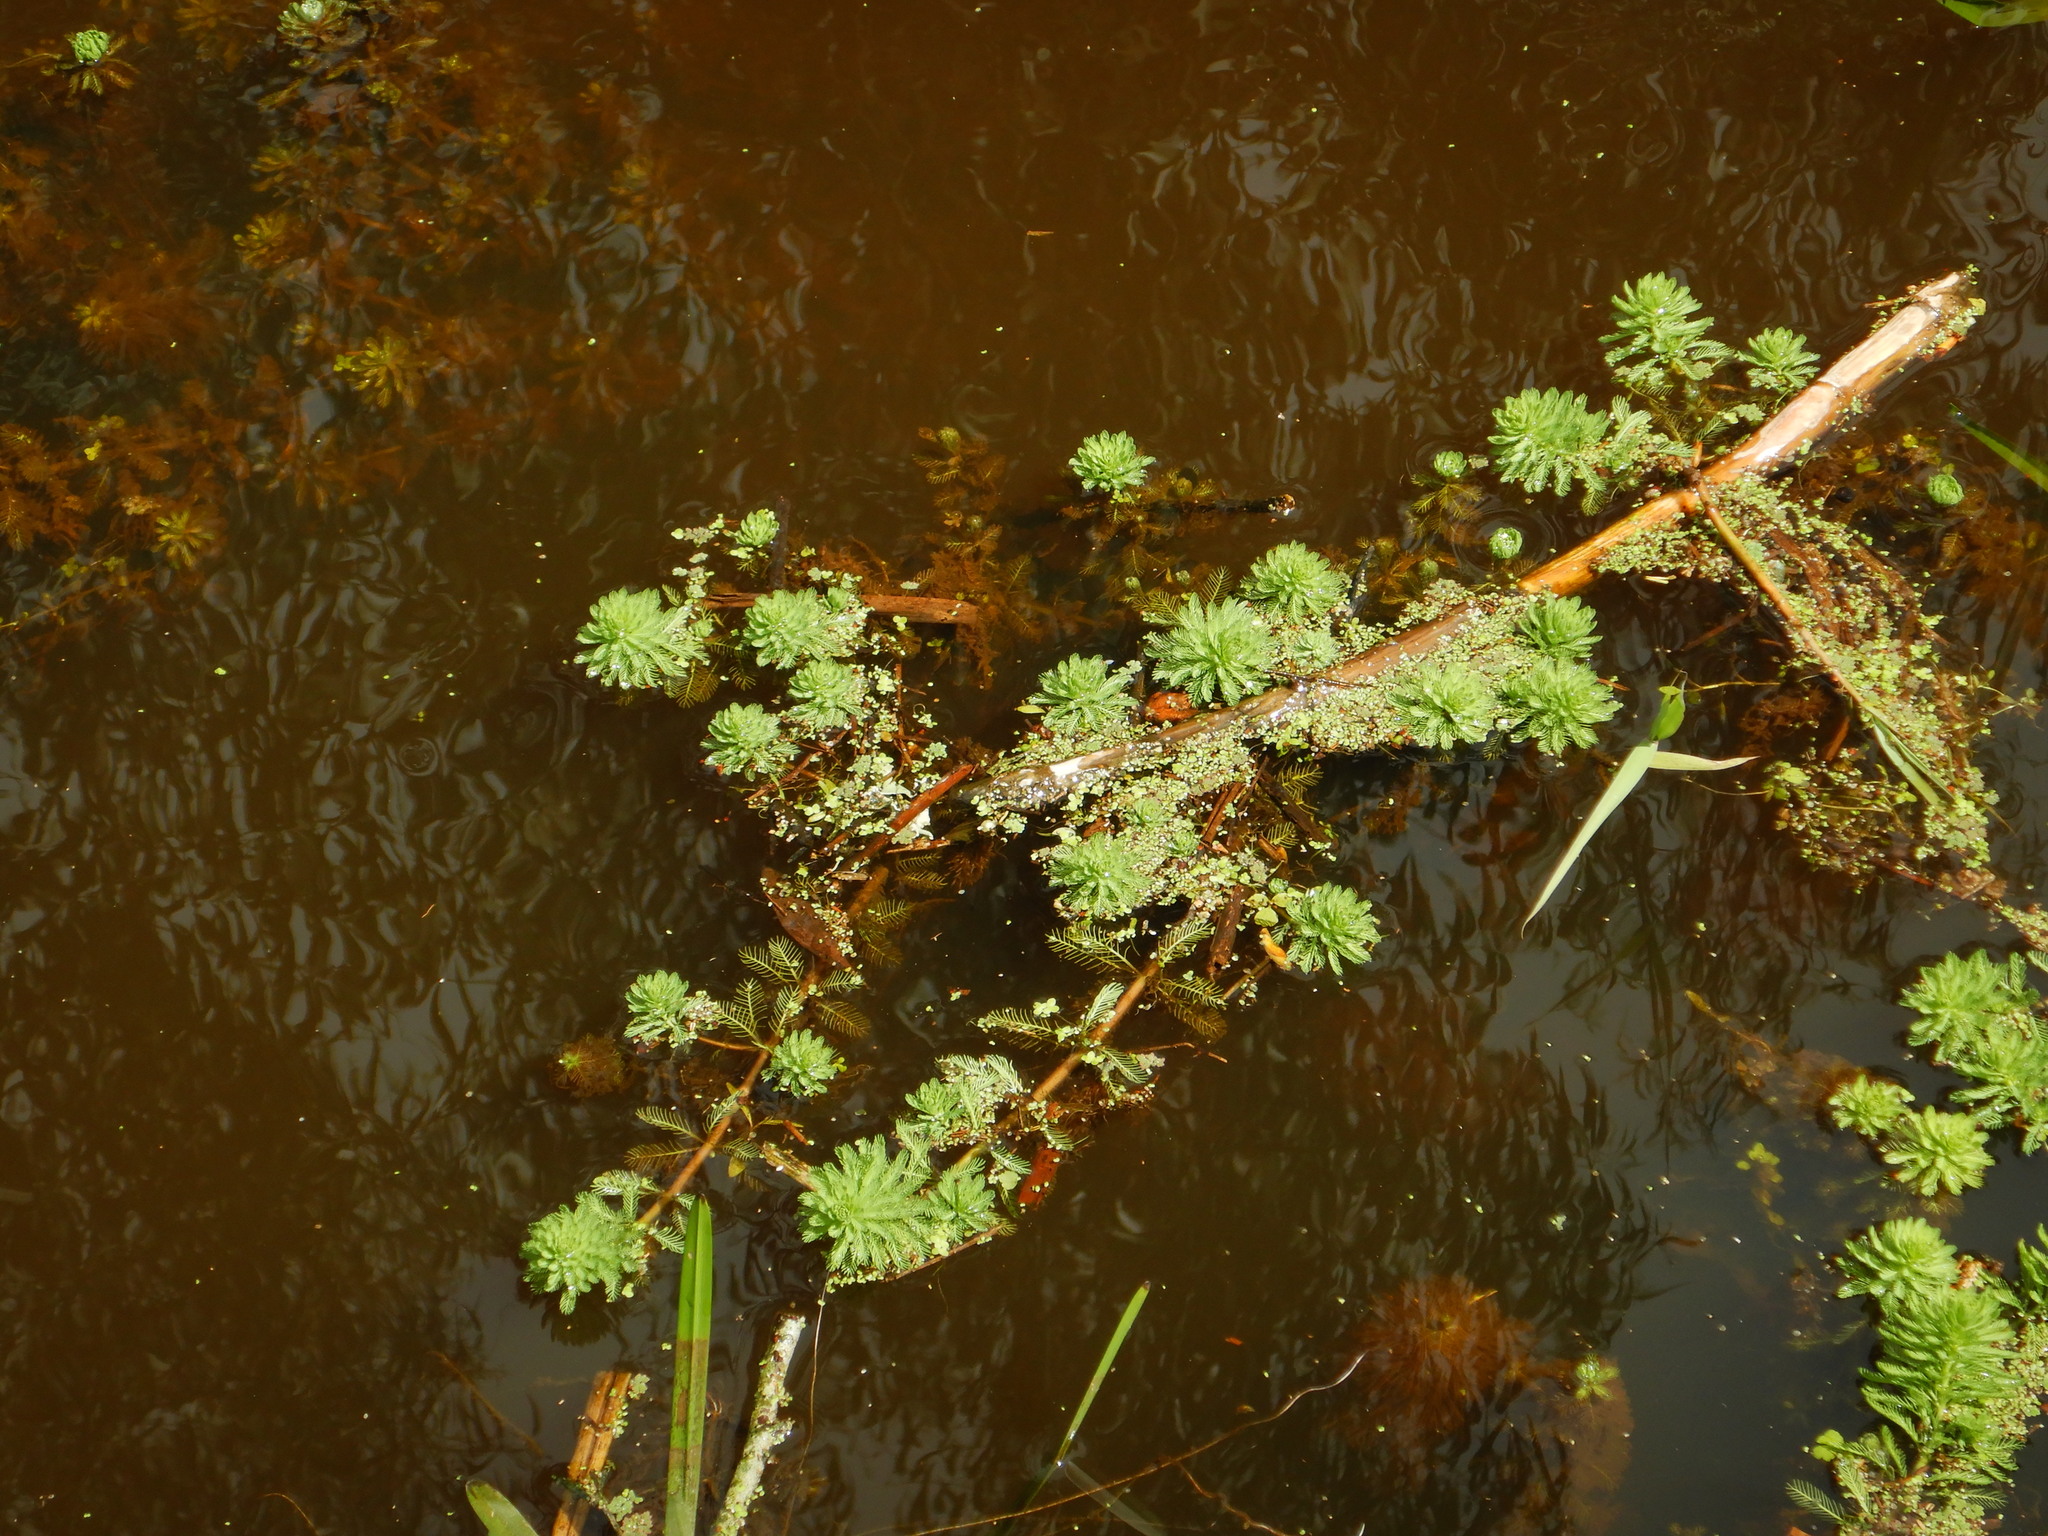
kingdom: Plantae
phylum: Tracheophyta
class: Magnoliopsida
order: Saxifragales
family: Haloragaceae
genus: Myriophyllum
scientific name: Myriophyllum aquaticum
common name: Parrot's feather
